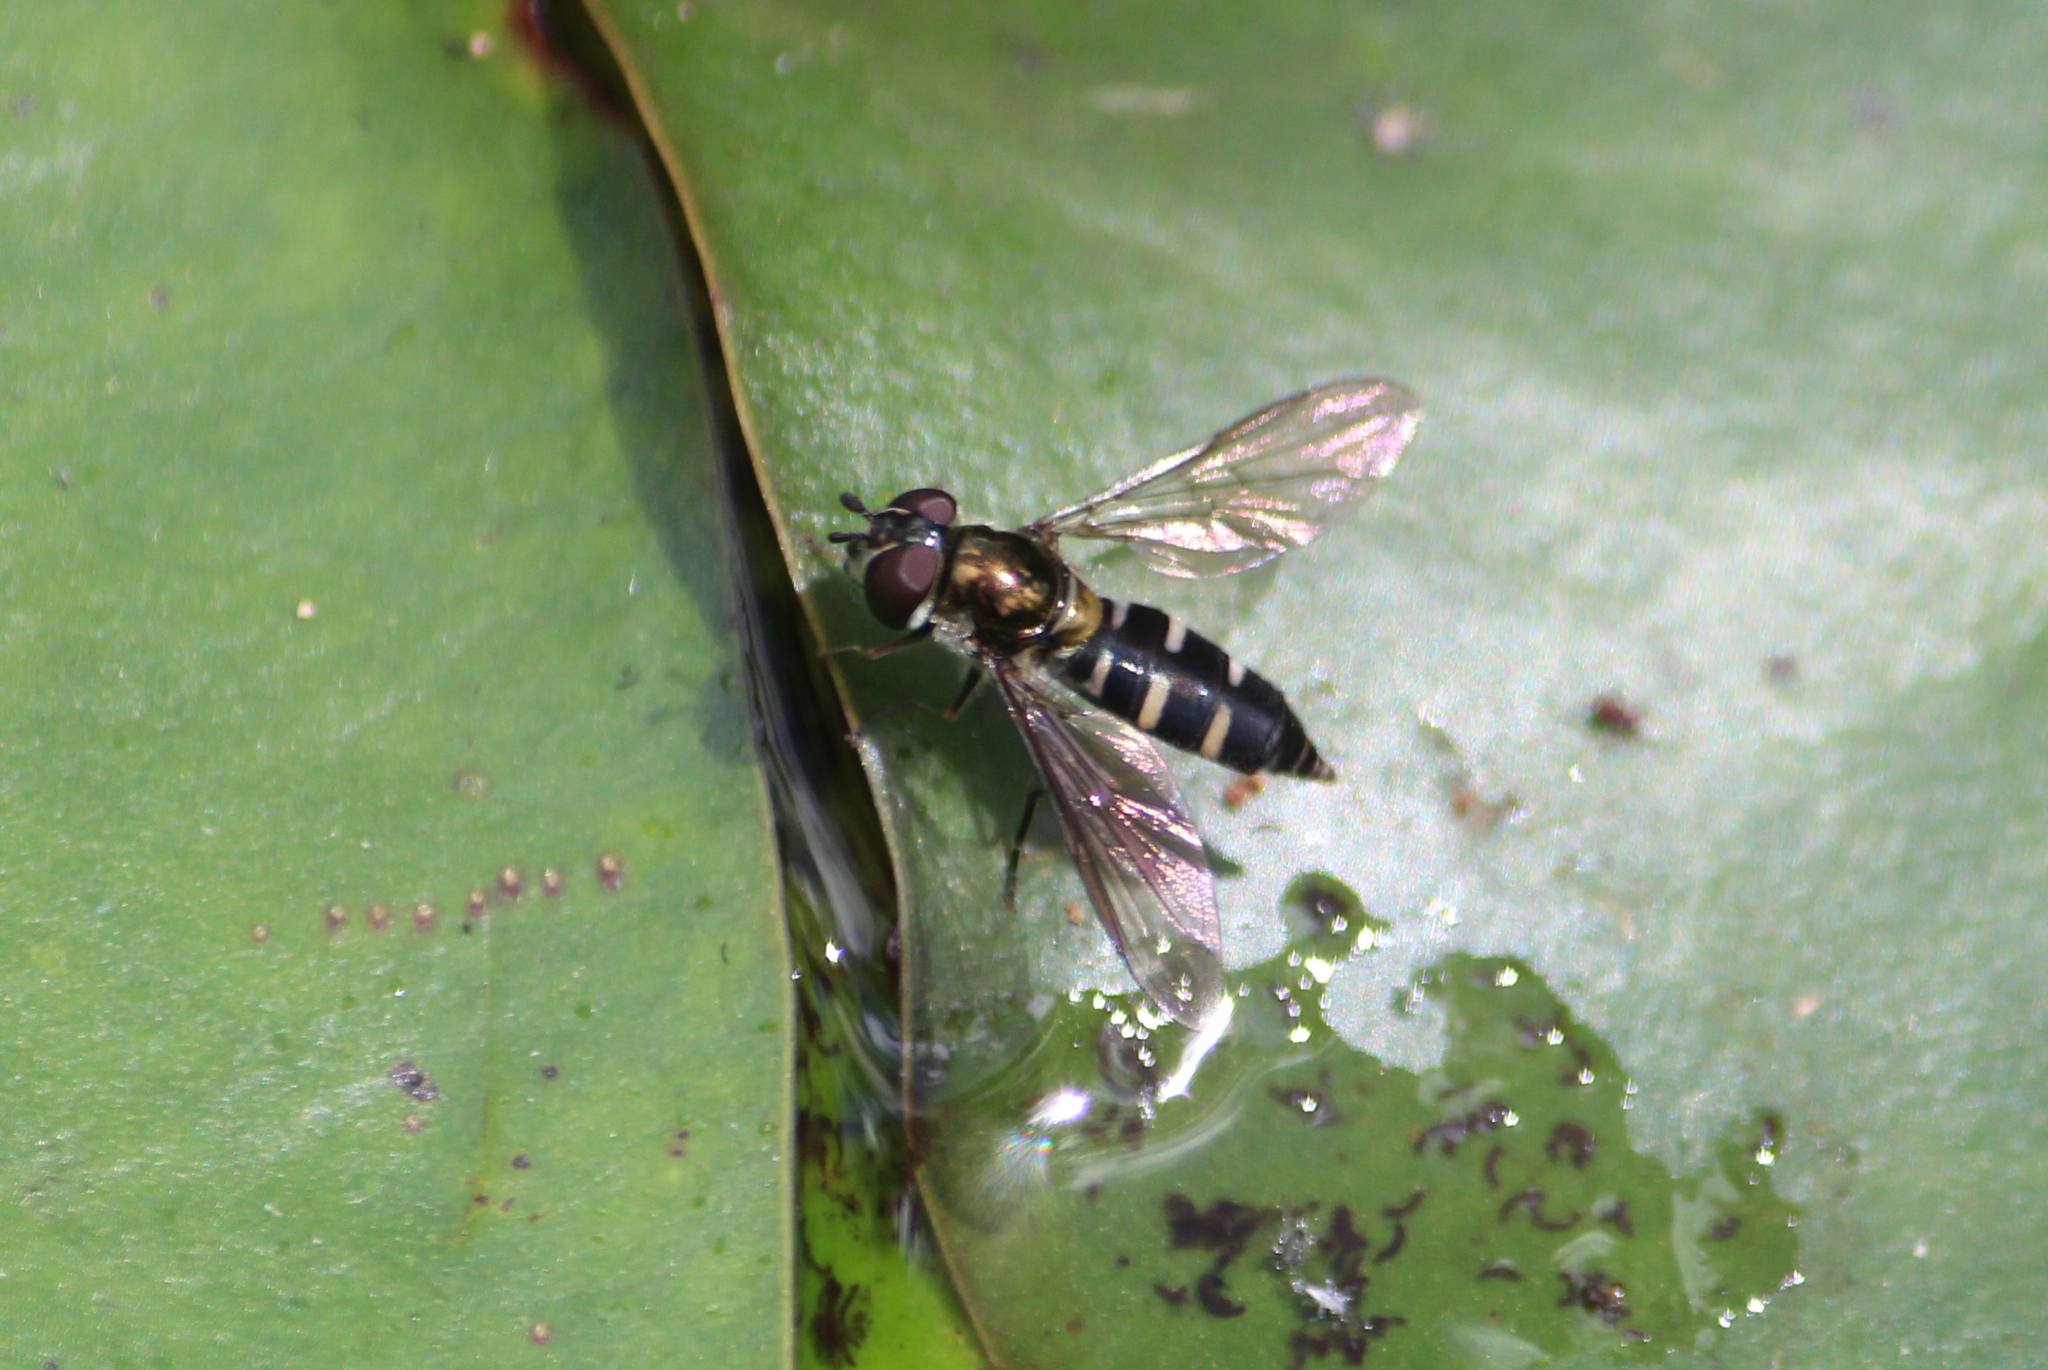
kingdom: Animalia
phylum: Arthropoda
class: Insecta
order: Diptera
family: Syrphidae
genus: Melangyna
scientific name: Melangyna novaezelandiae
